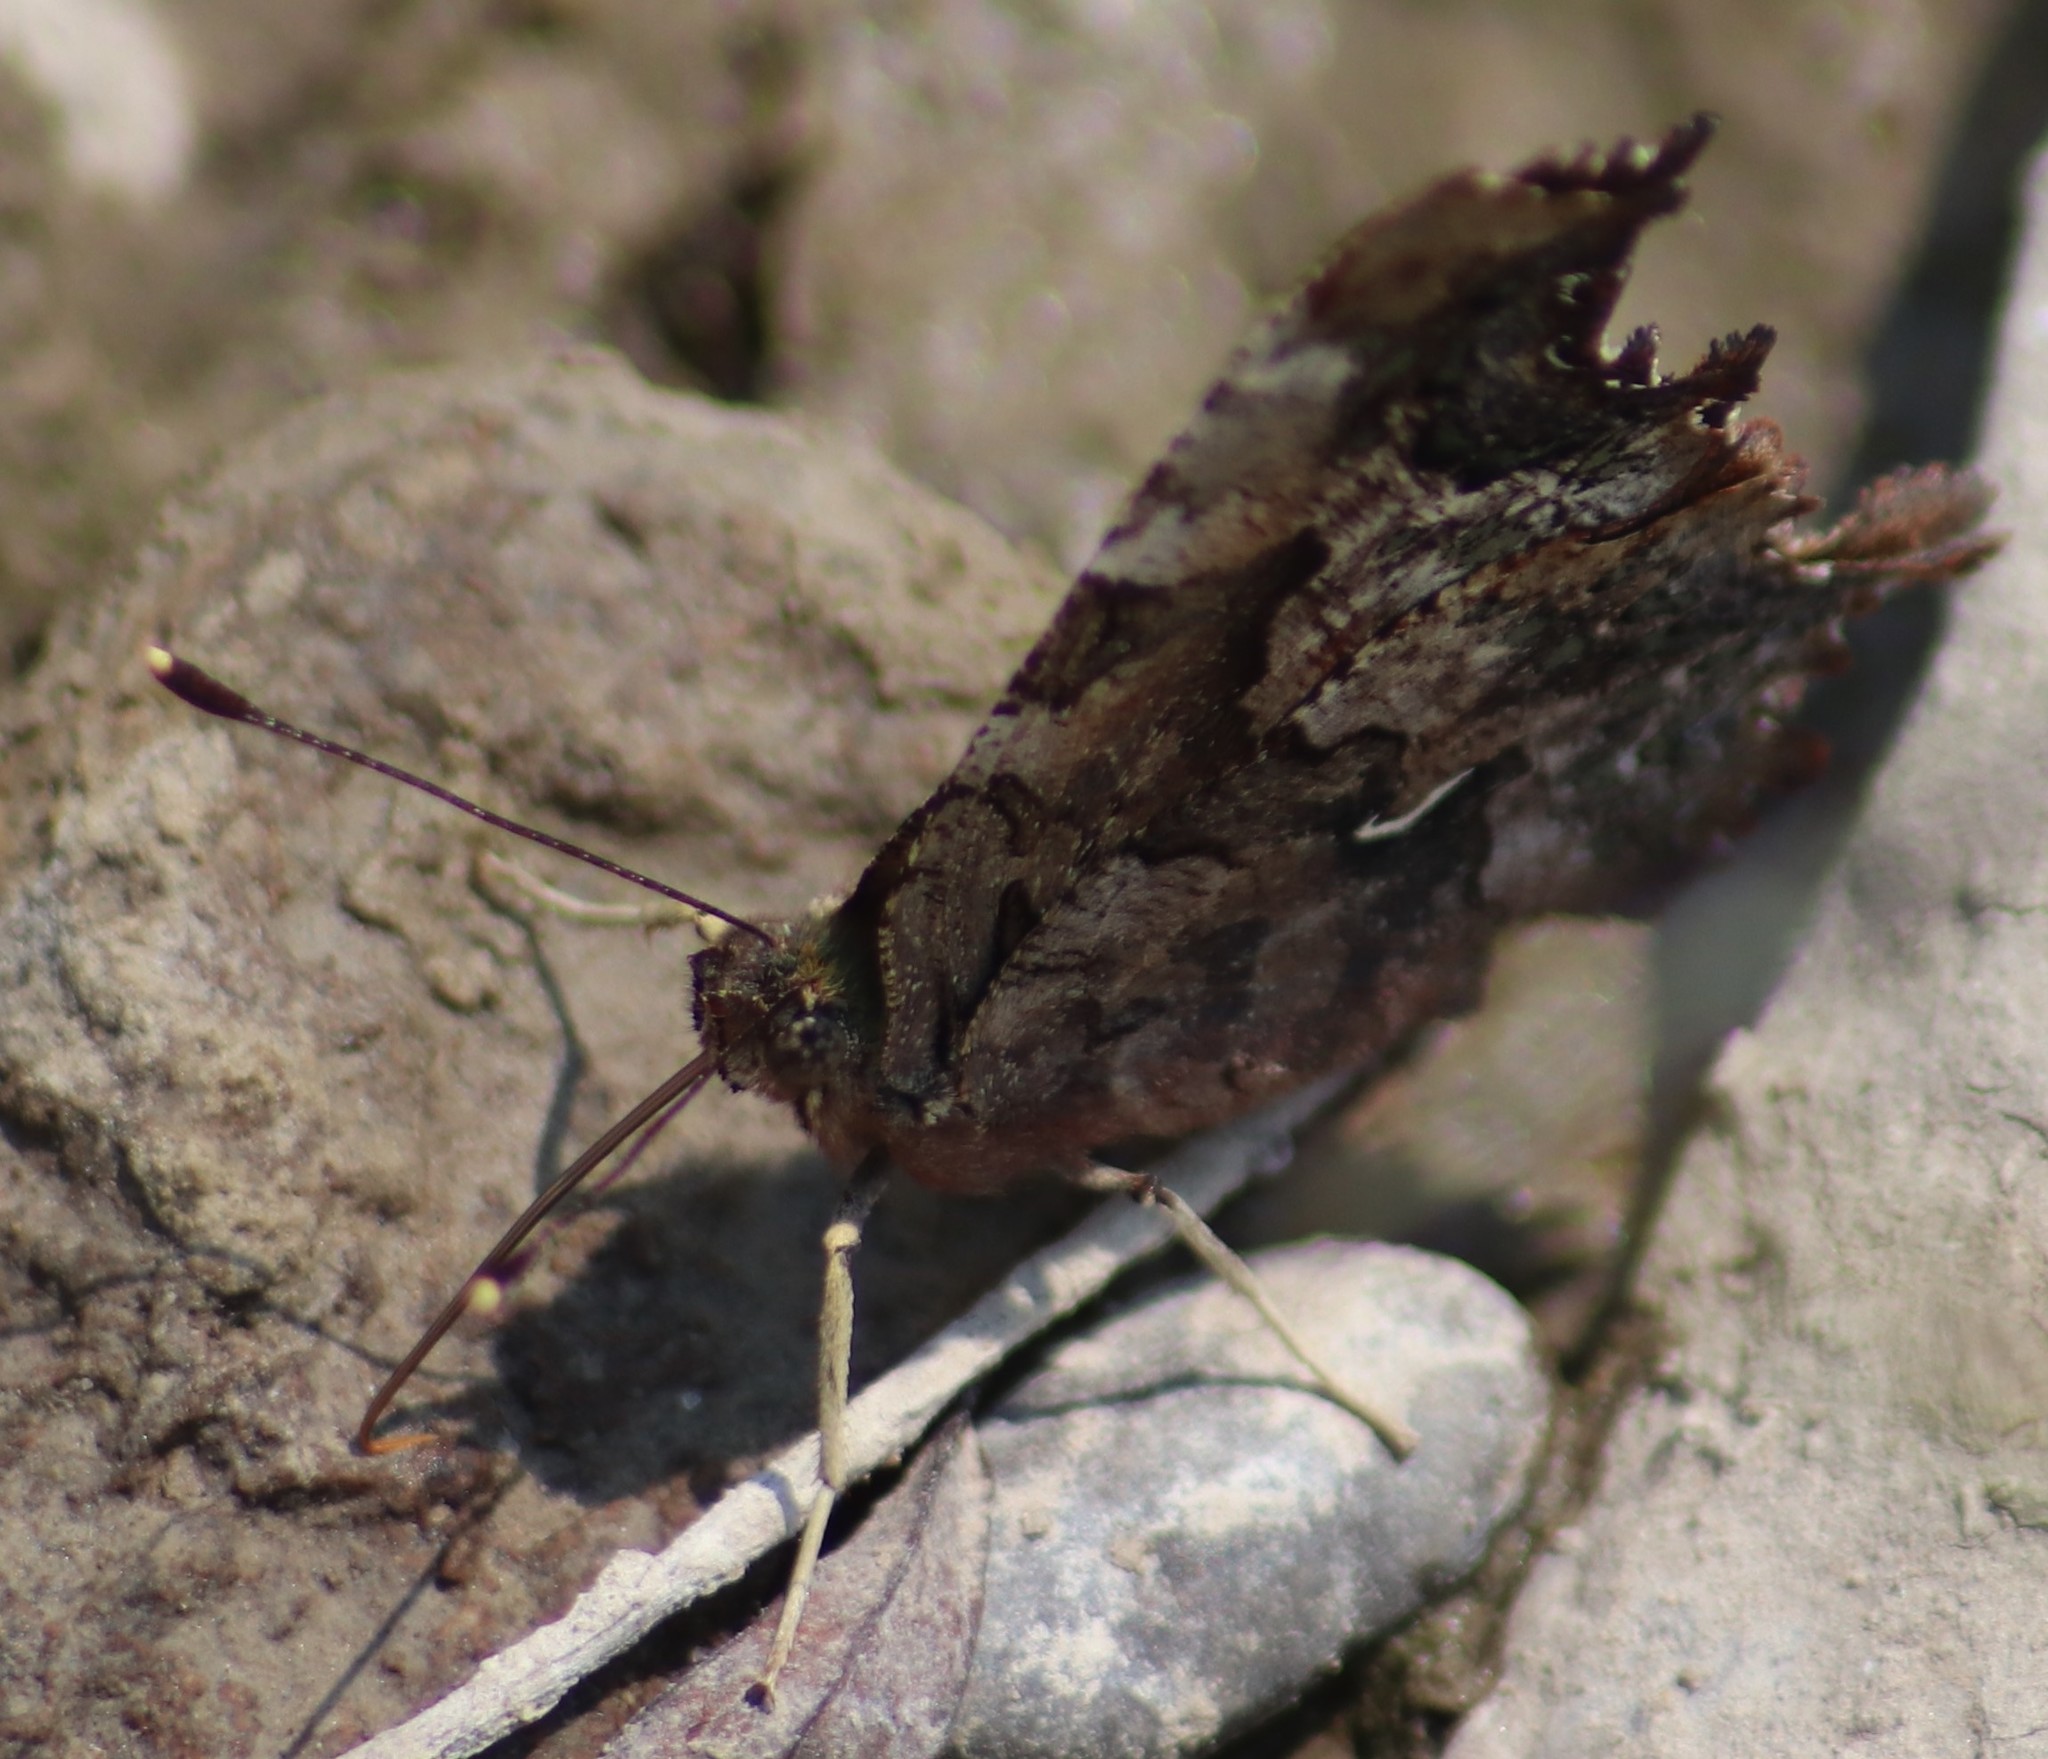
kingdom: Animalia
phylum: Arthropoda
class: Insecta
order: Lepidoptera
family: Nymphalidae
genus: Polygonia
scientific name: Polygonia faunus
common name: Green comma
